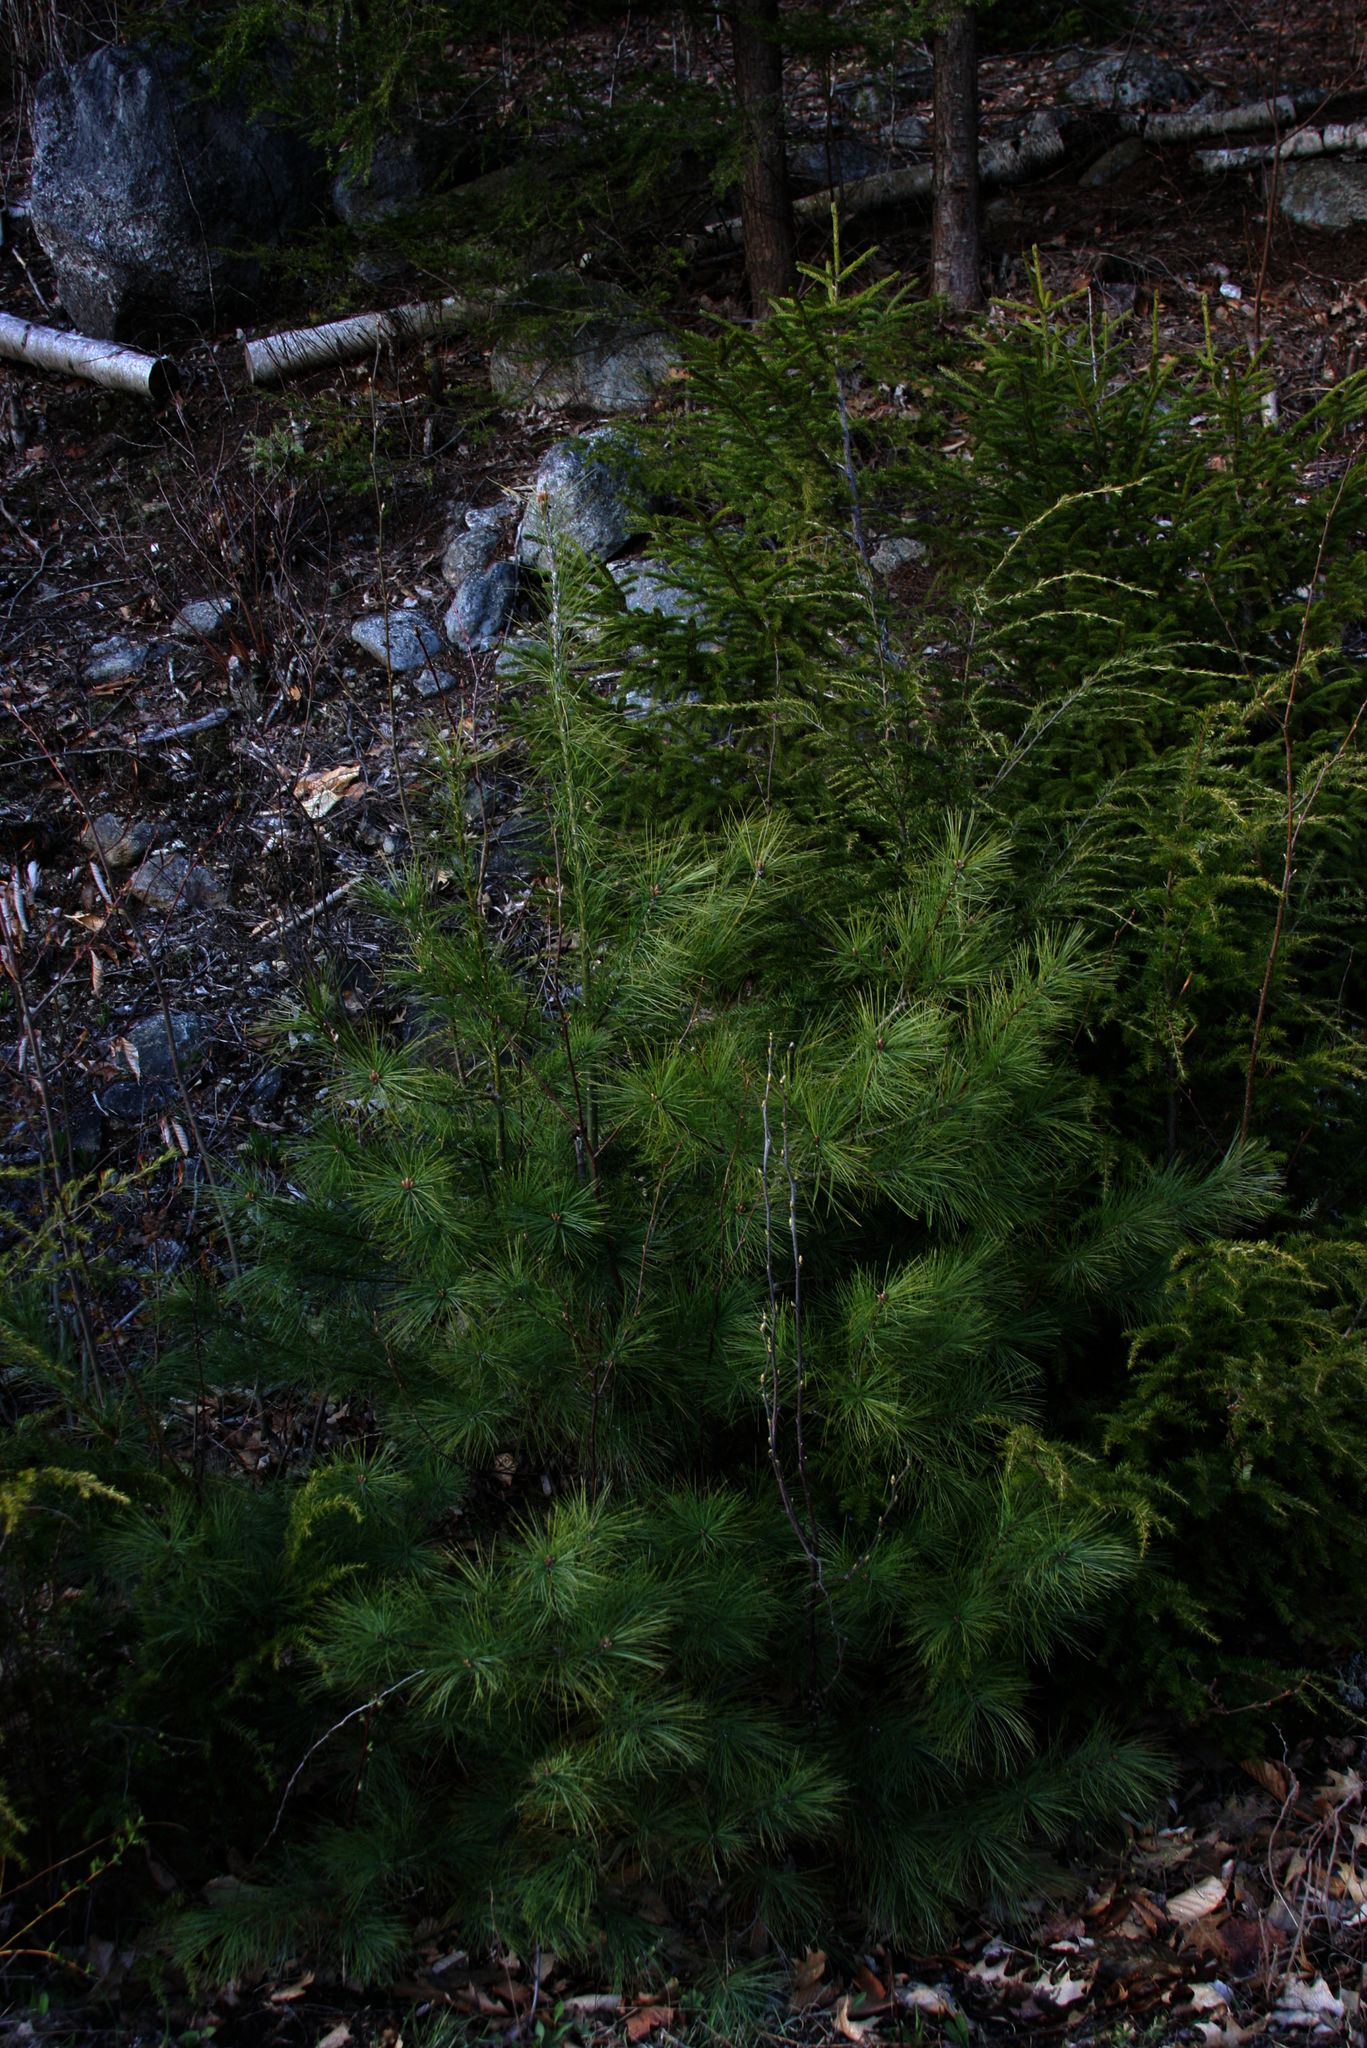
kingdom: Plantae
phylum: Tracheophyta
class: Pinopsida
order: Pinales
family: Pinaceae
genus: Pinus
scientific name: Pinus strobus
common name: Weymouth pine
